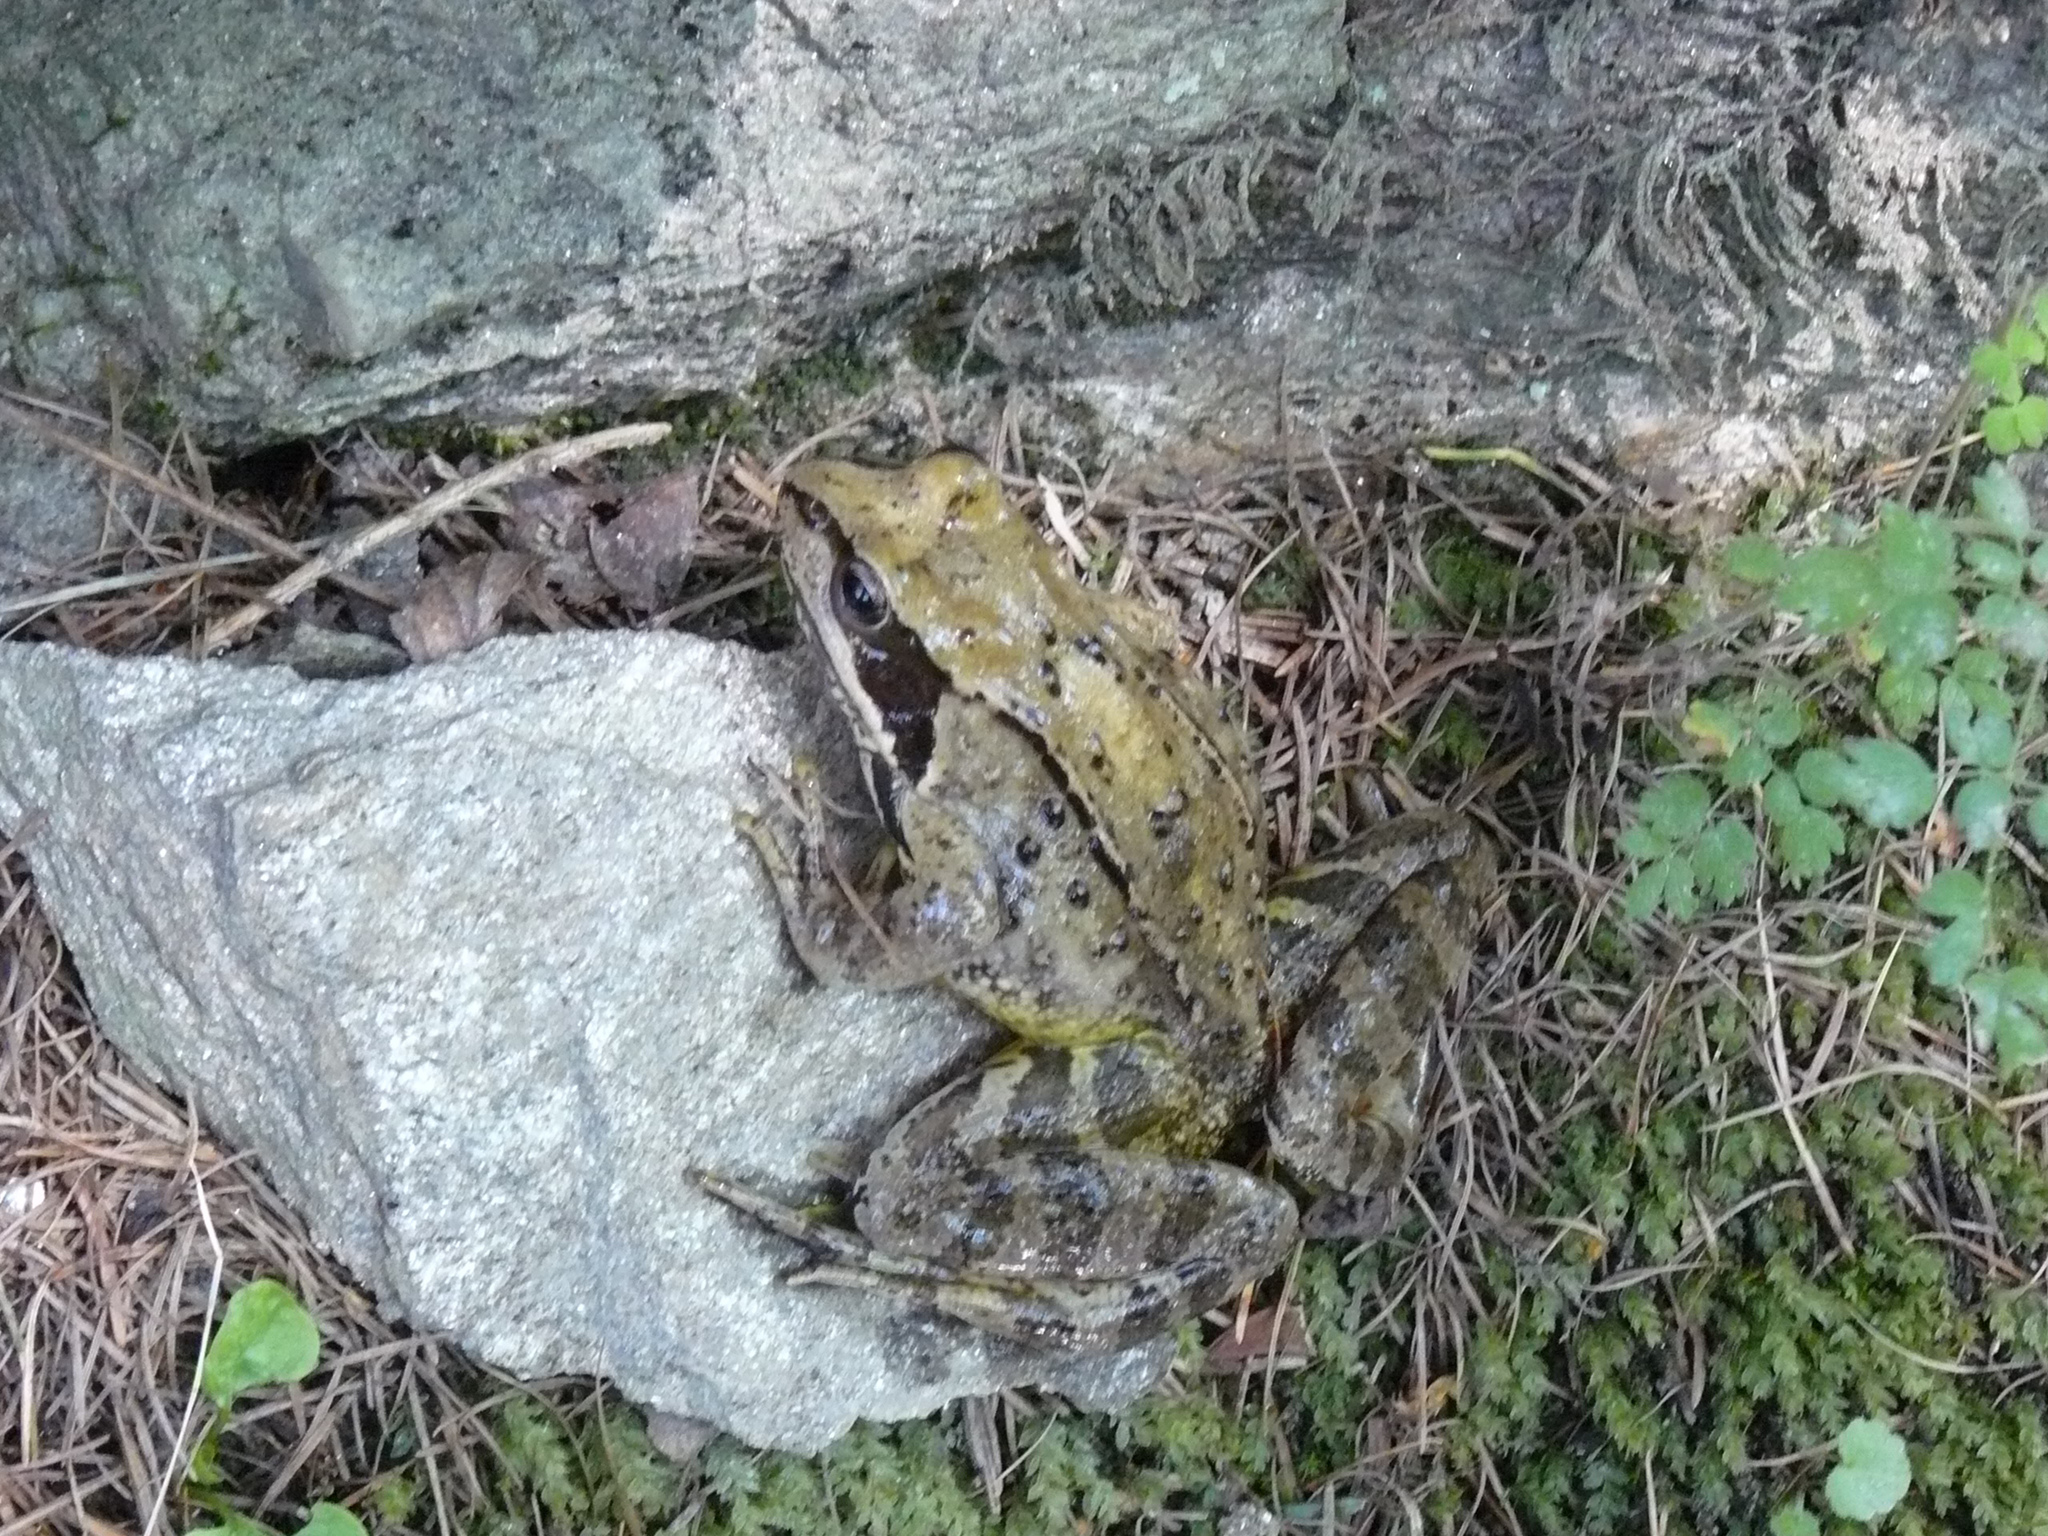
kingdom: Animalia
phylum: Chordata
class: Amphibia
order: Anura
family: Ranidae
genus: Rana
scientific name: Rana temporaria
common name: Common frog
